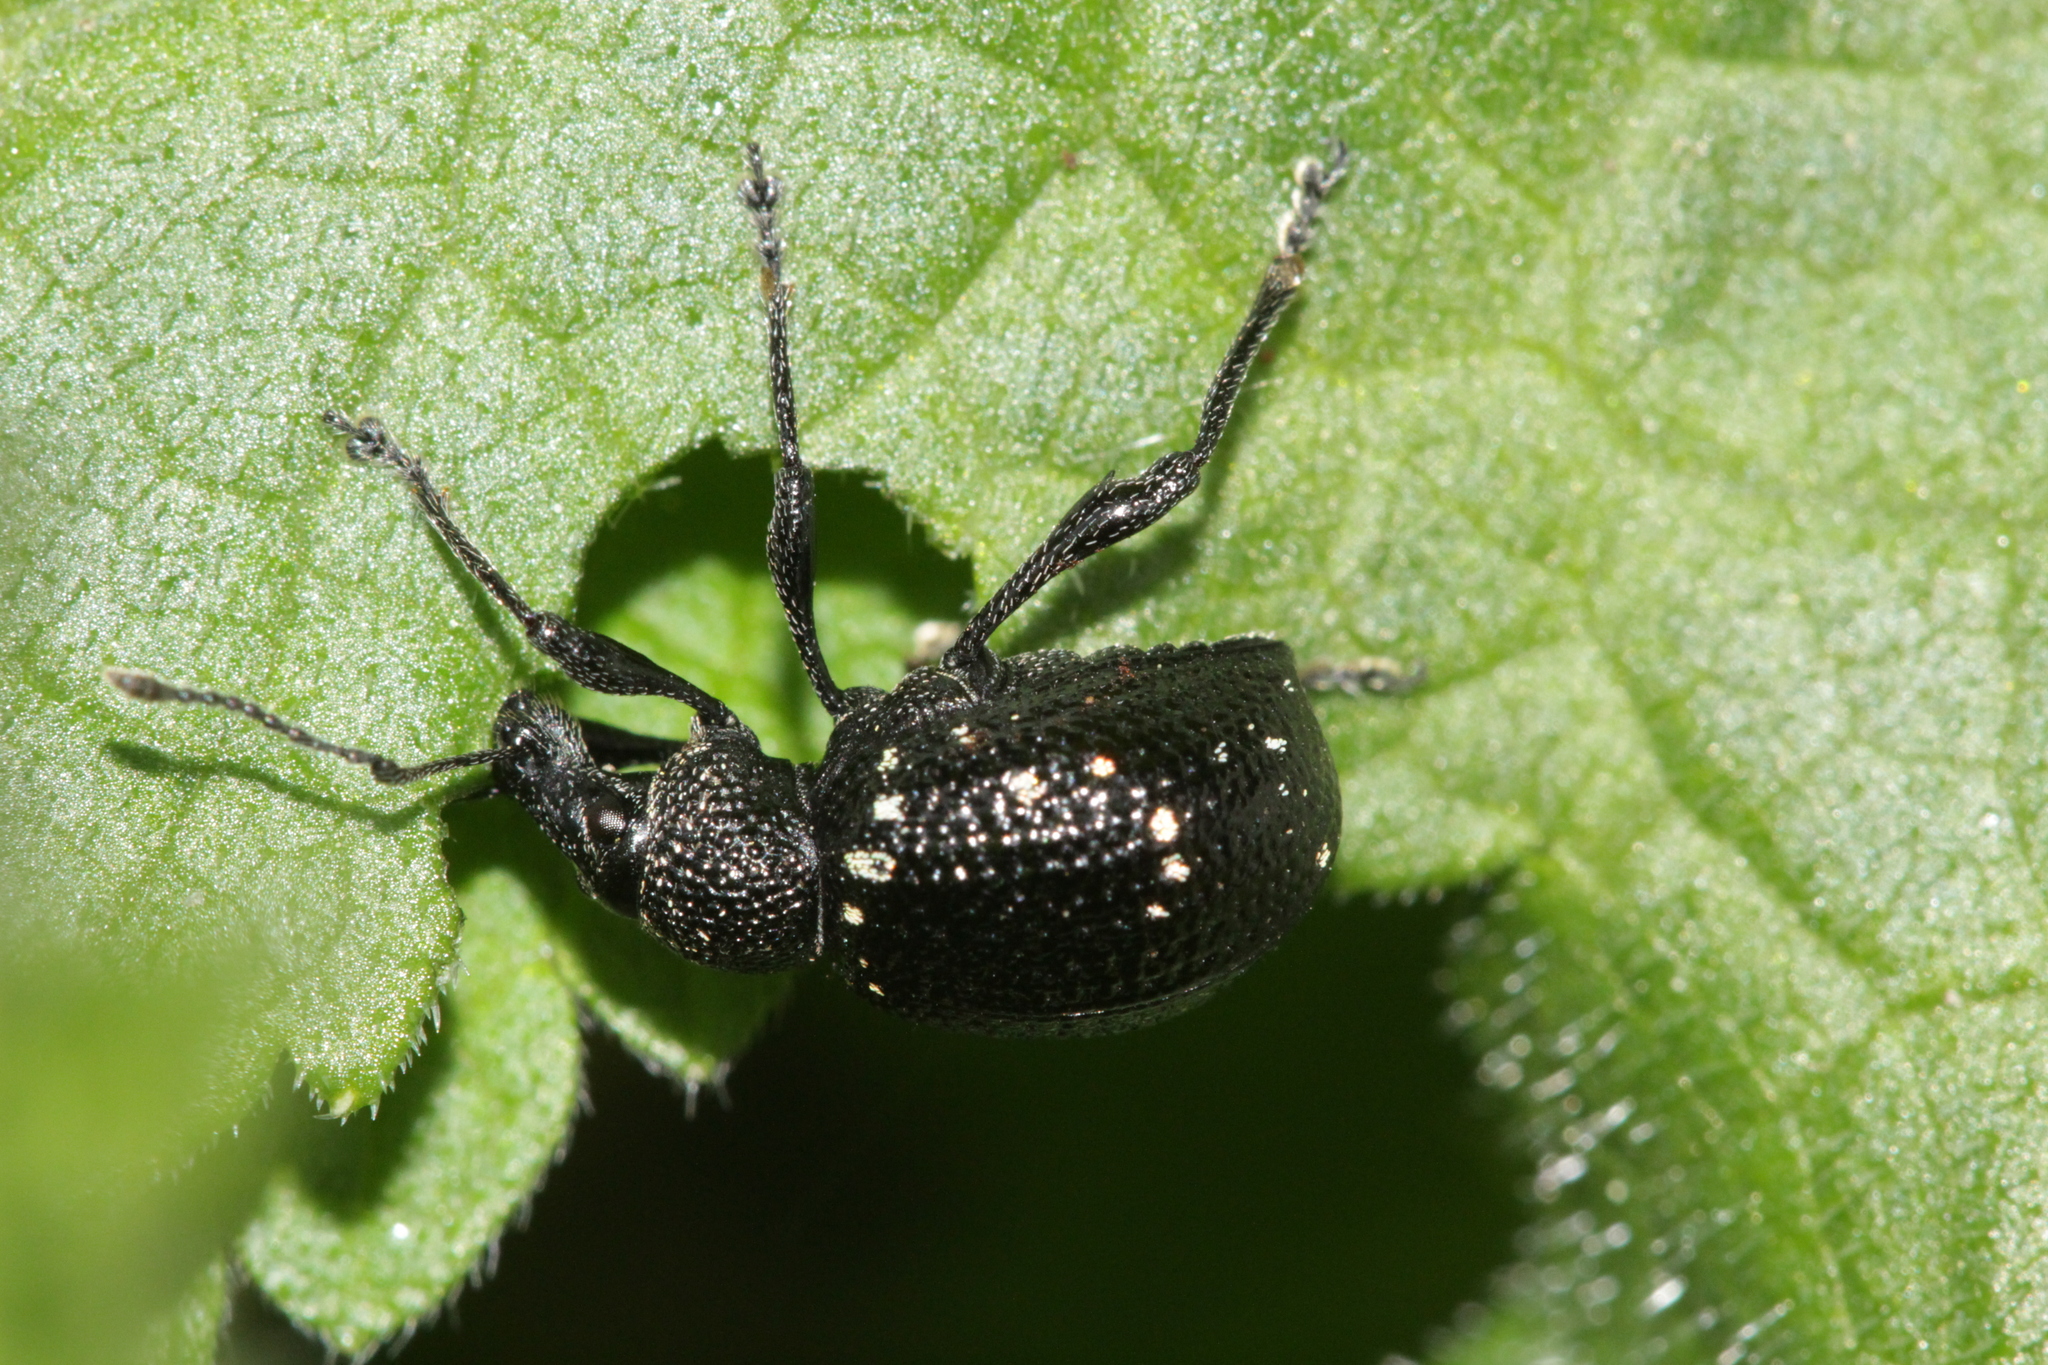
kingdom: Animalia
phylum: Arthropoda
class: Insecta
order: Coleoptera
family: Curculionidae
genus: Otiorhynchus
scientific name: Otiorhynchus gemmatus
